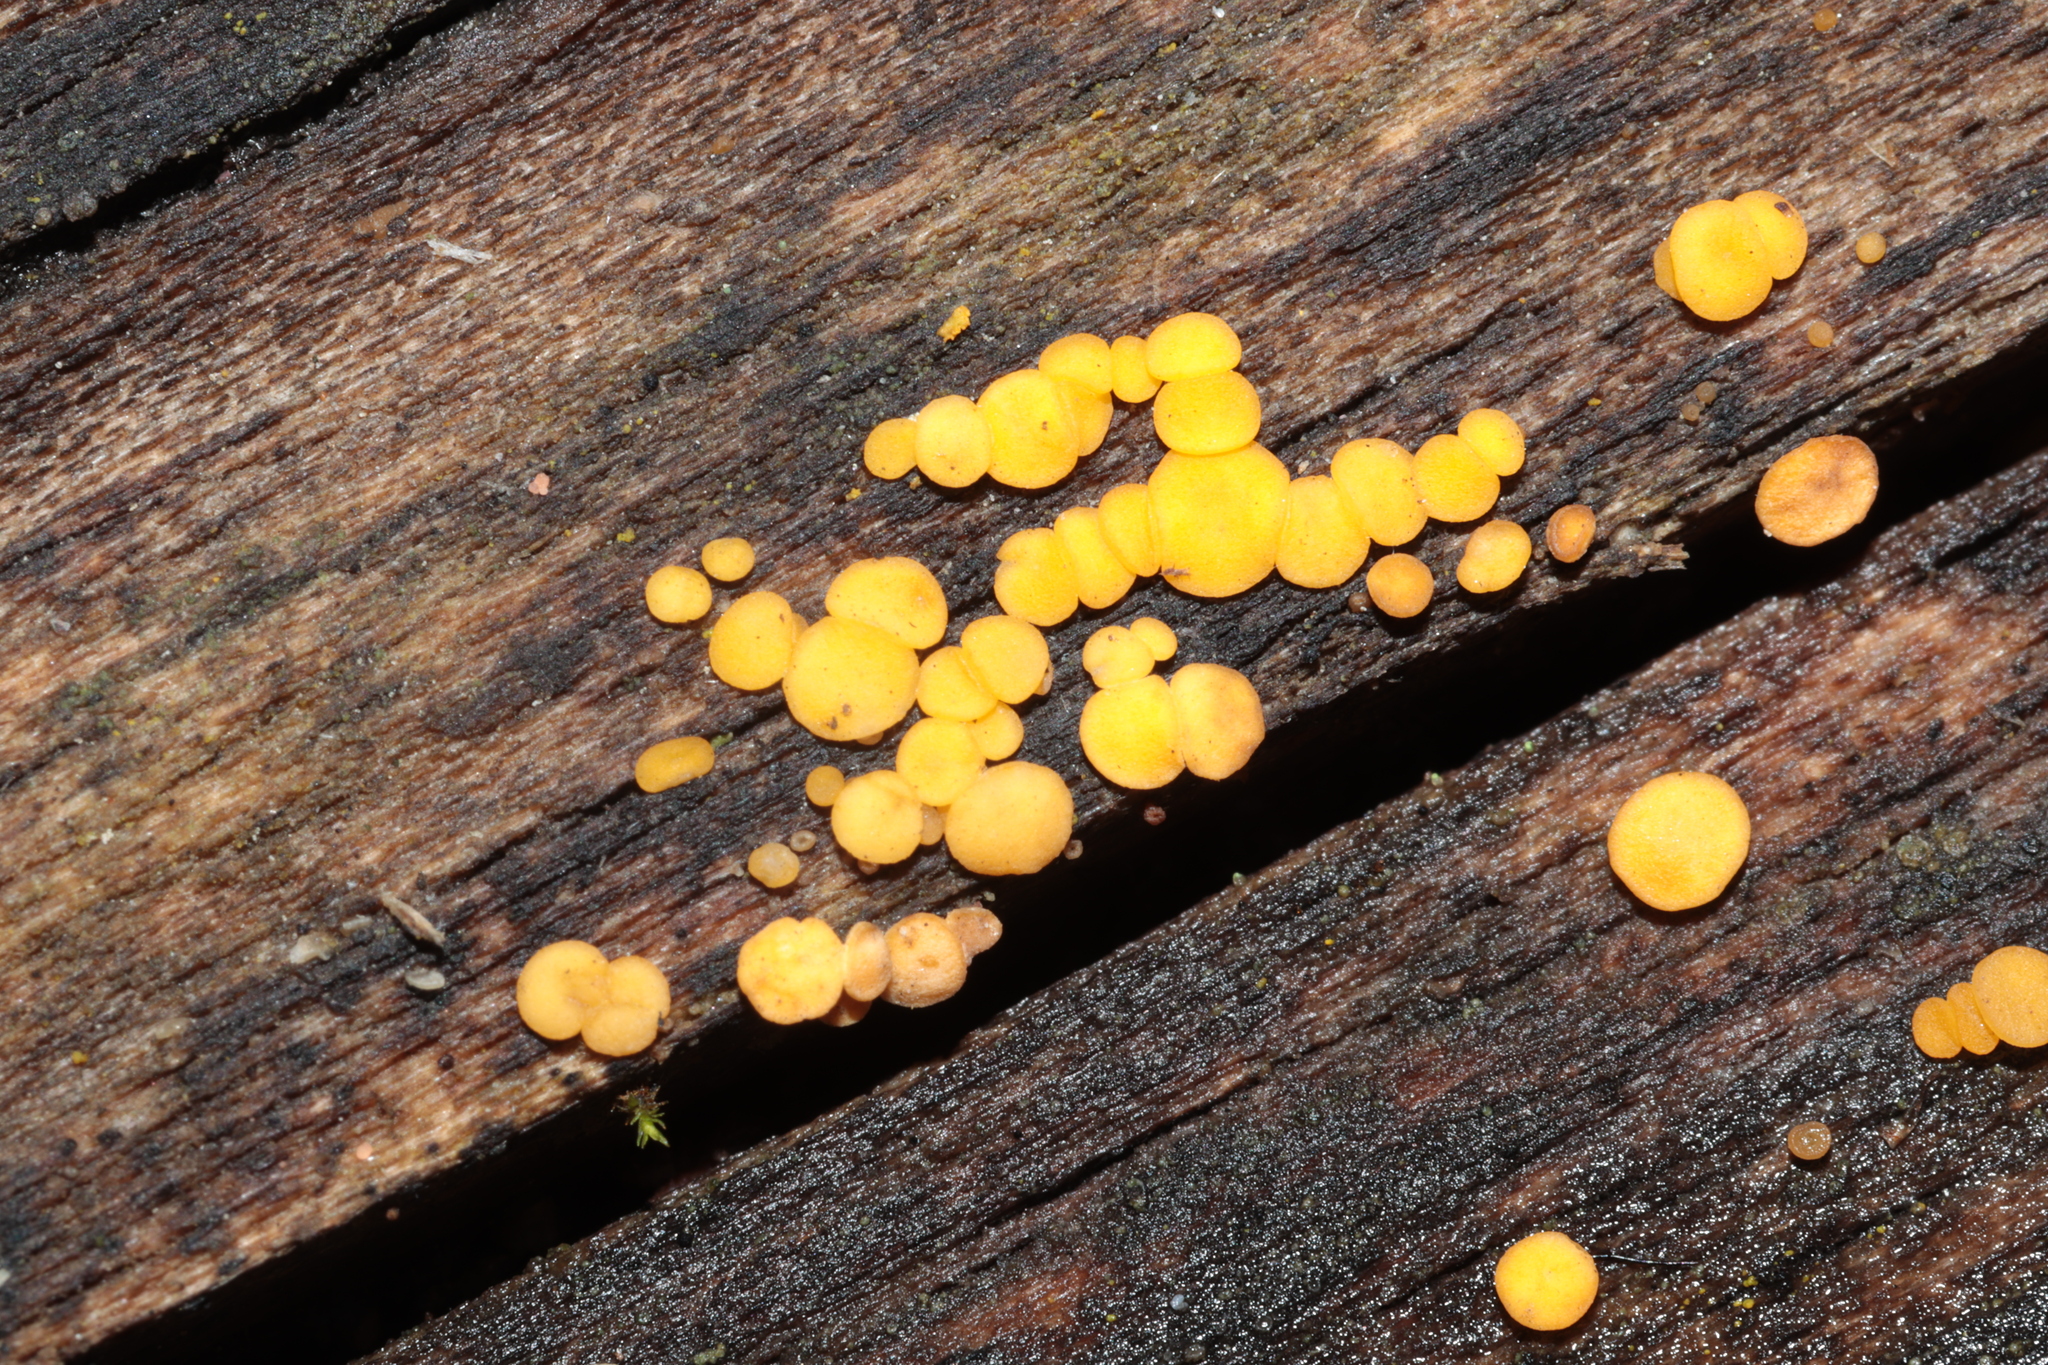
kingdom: Fungi
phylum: Ascomycota
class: Leotiomycetes
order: Helotiales
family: Pezizellaceae
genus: Calycina
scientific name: Calycina citrina
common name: Yellow fairy cups
